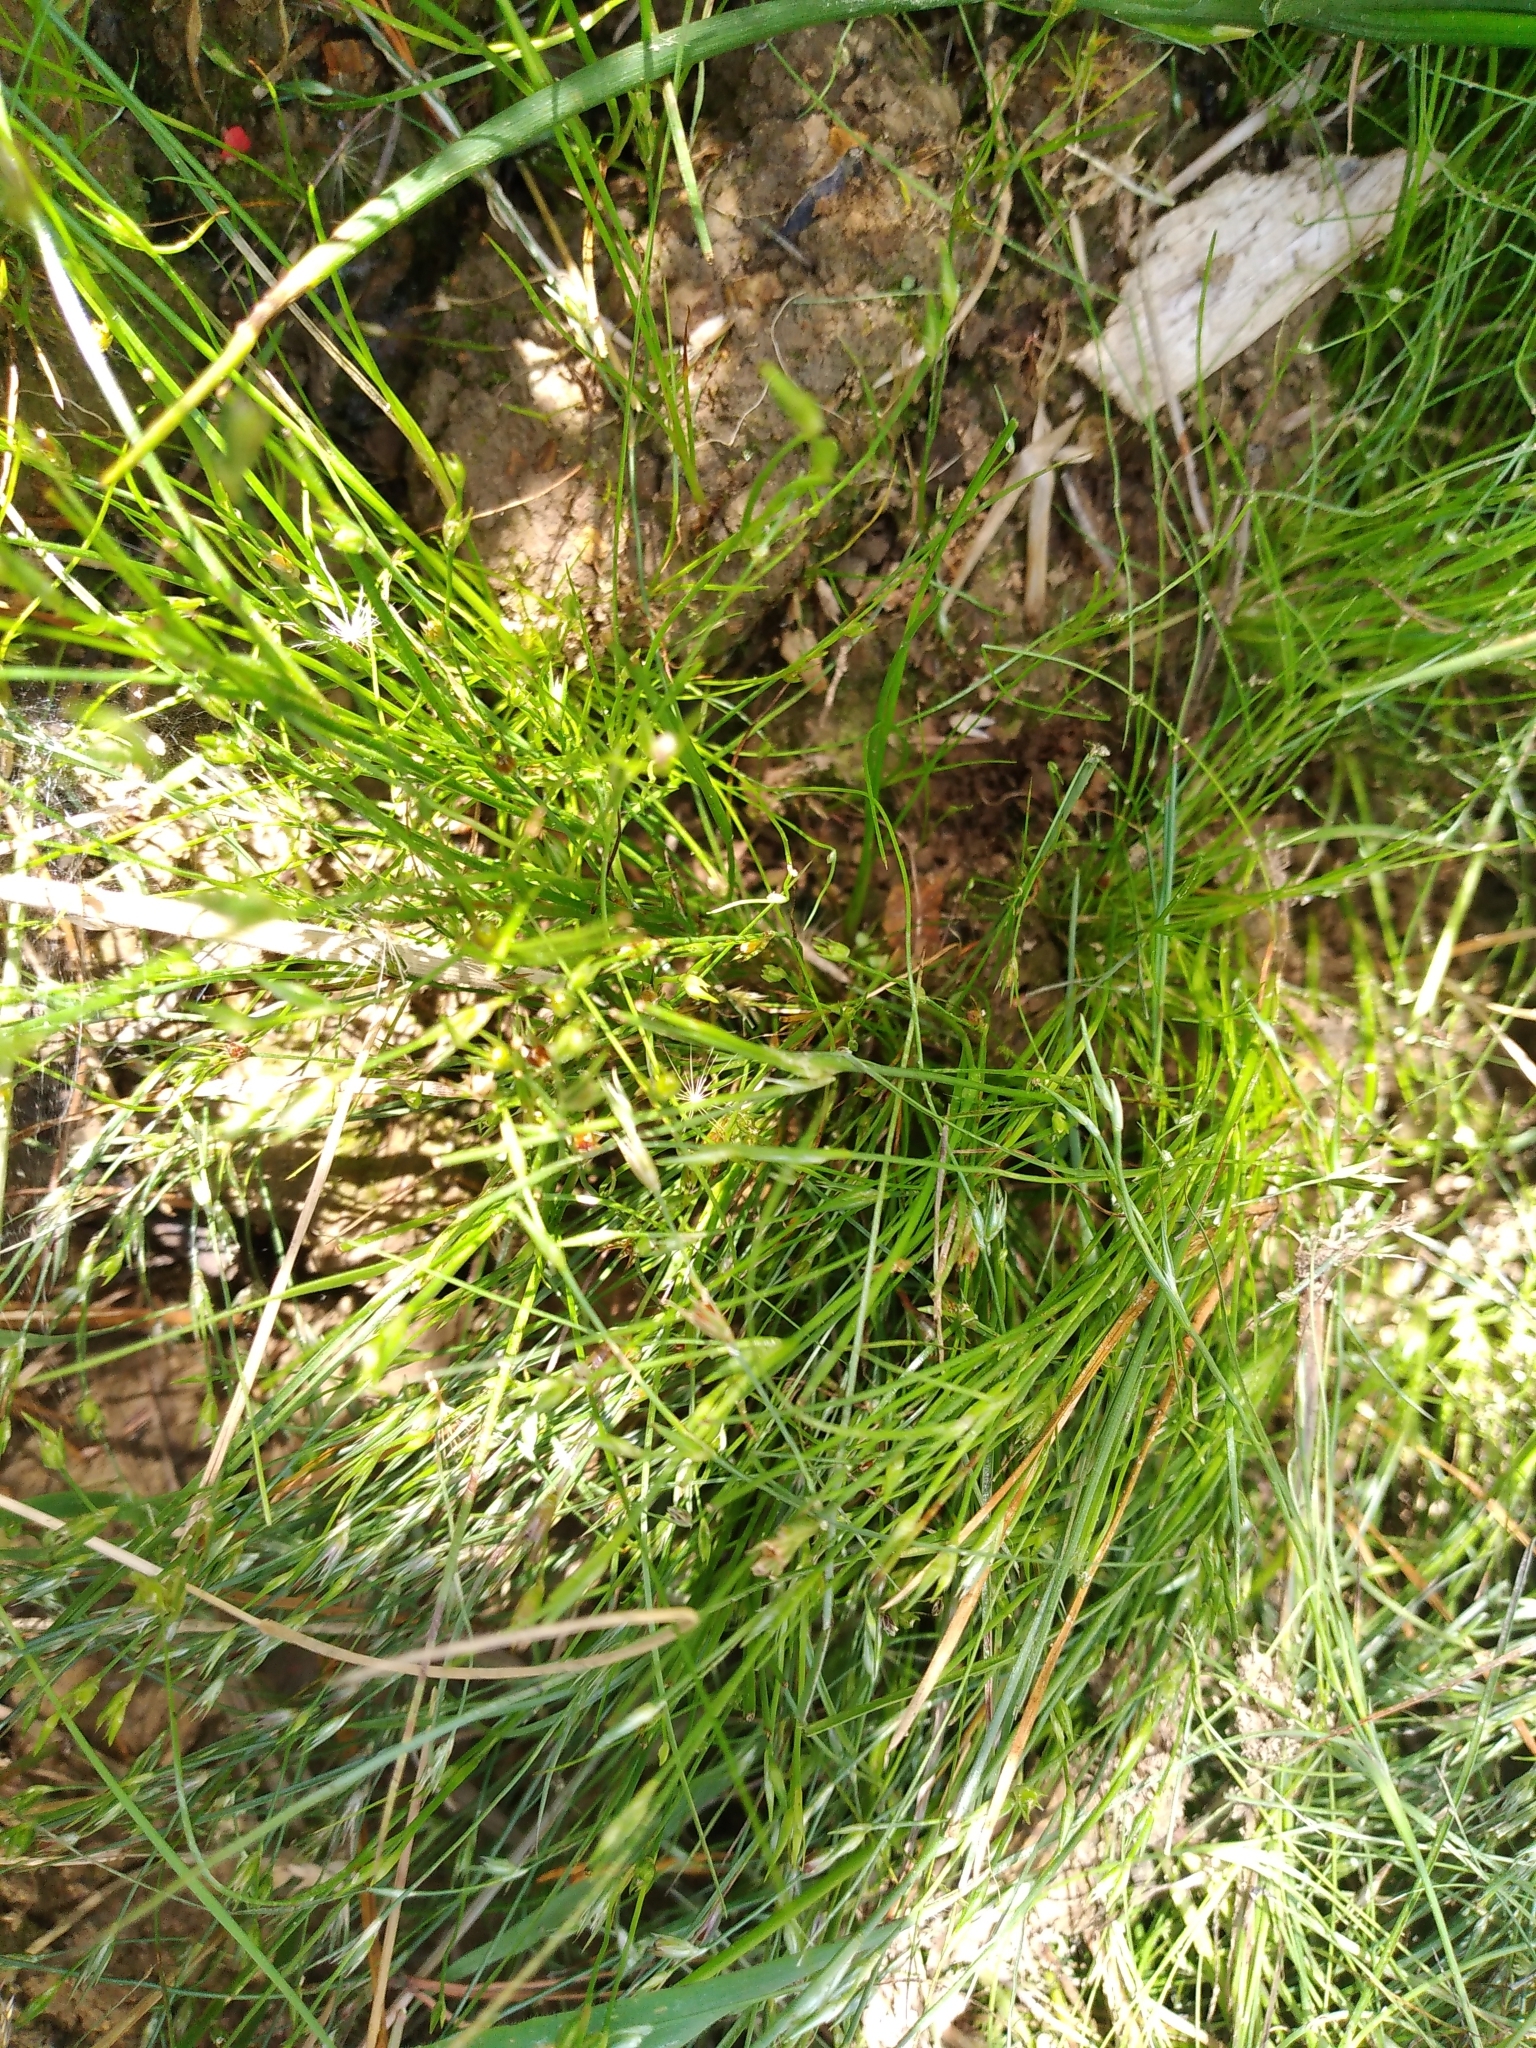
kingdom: Plantae
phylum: Tracheophyta
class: Liliopsida
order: Poales
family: Juncaceae
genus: Juncus
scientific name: Juncus bufonius
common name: Toad rush
